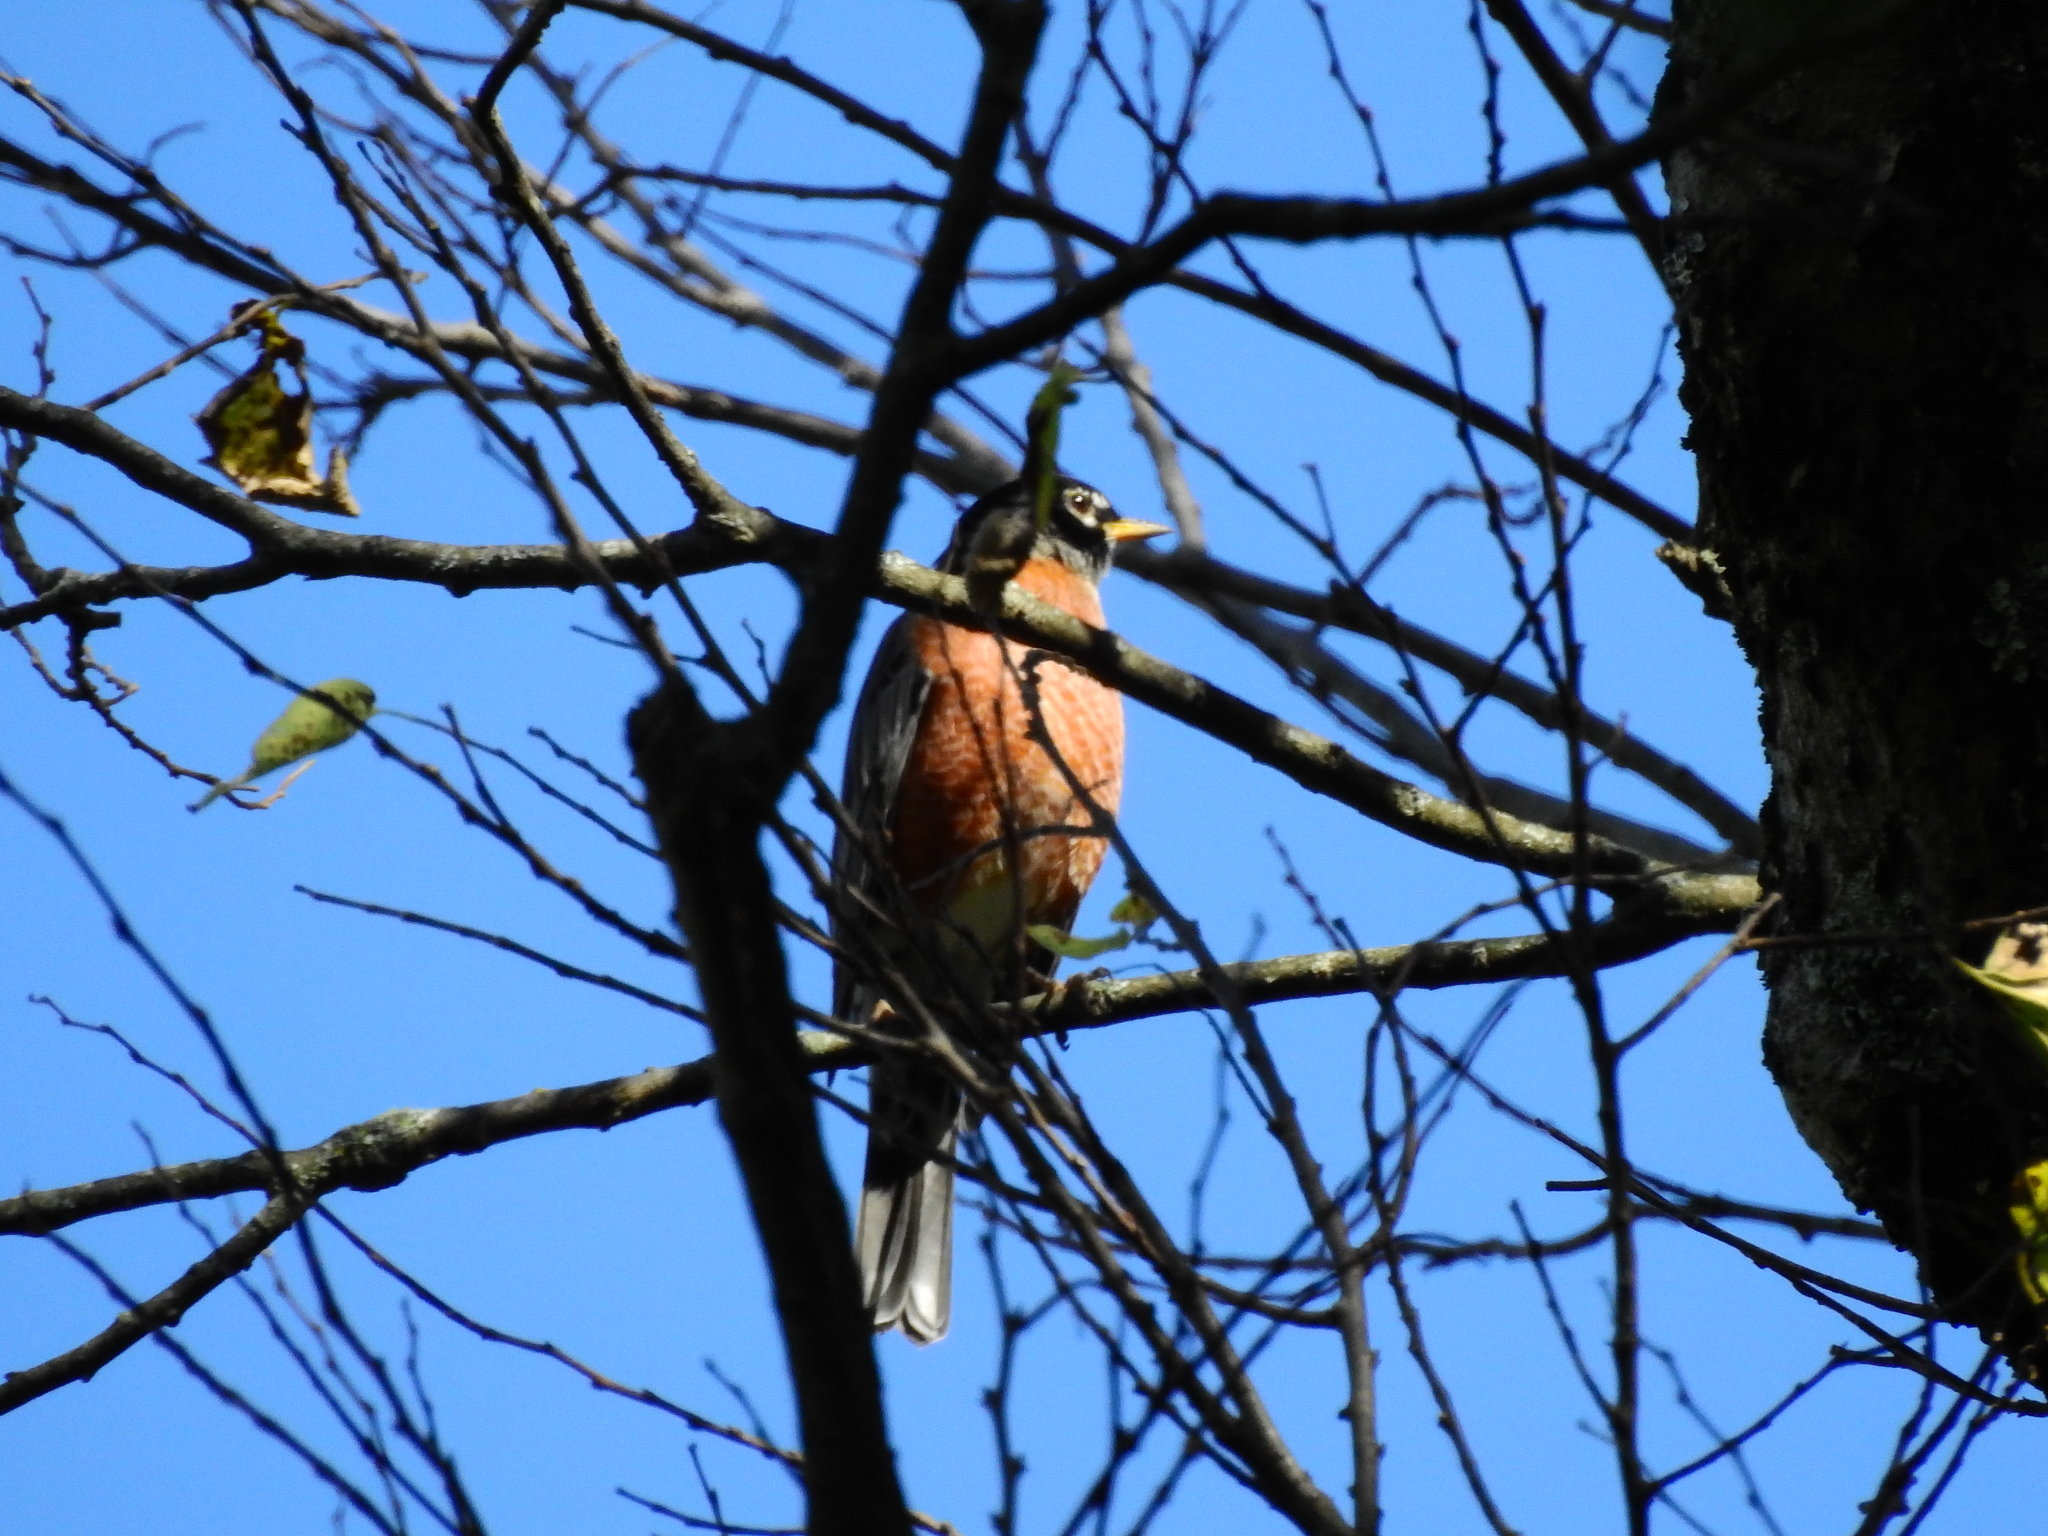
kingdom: Animalia
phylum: Chordata
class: Aves
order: Passeriformes
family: Turdidae
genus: Turdus
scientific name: Turdus migratorius
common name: American robin
